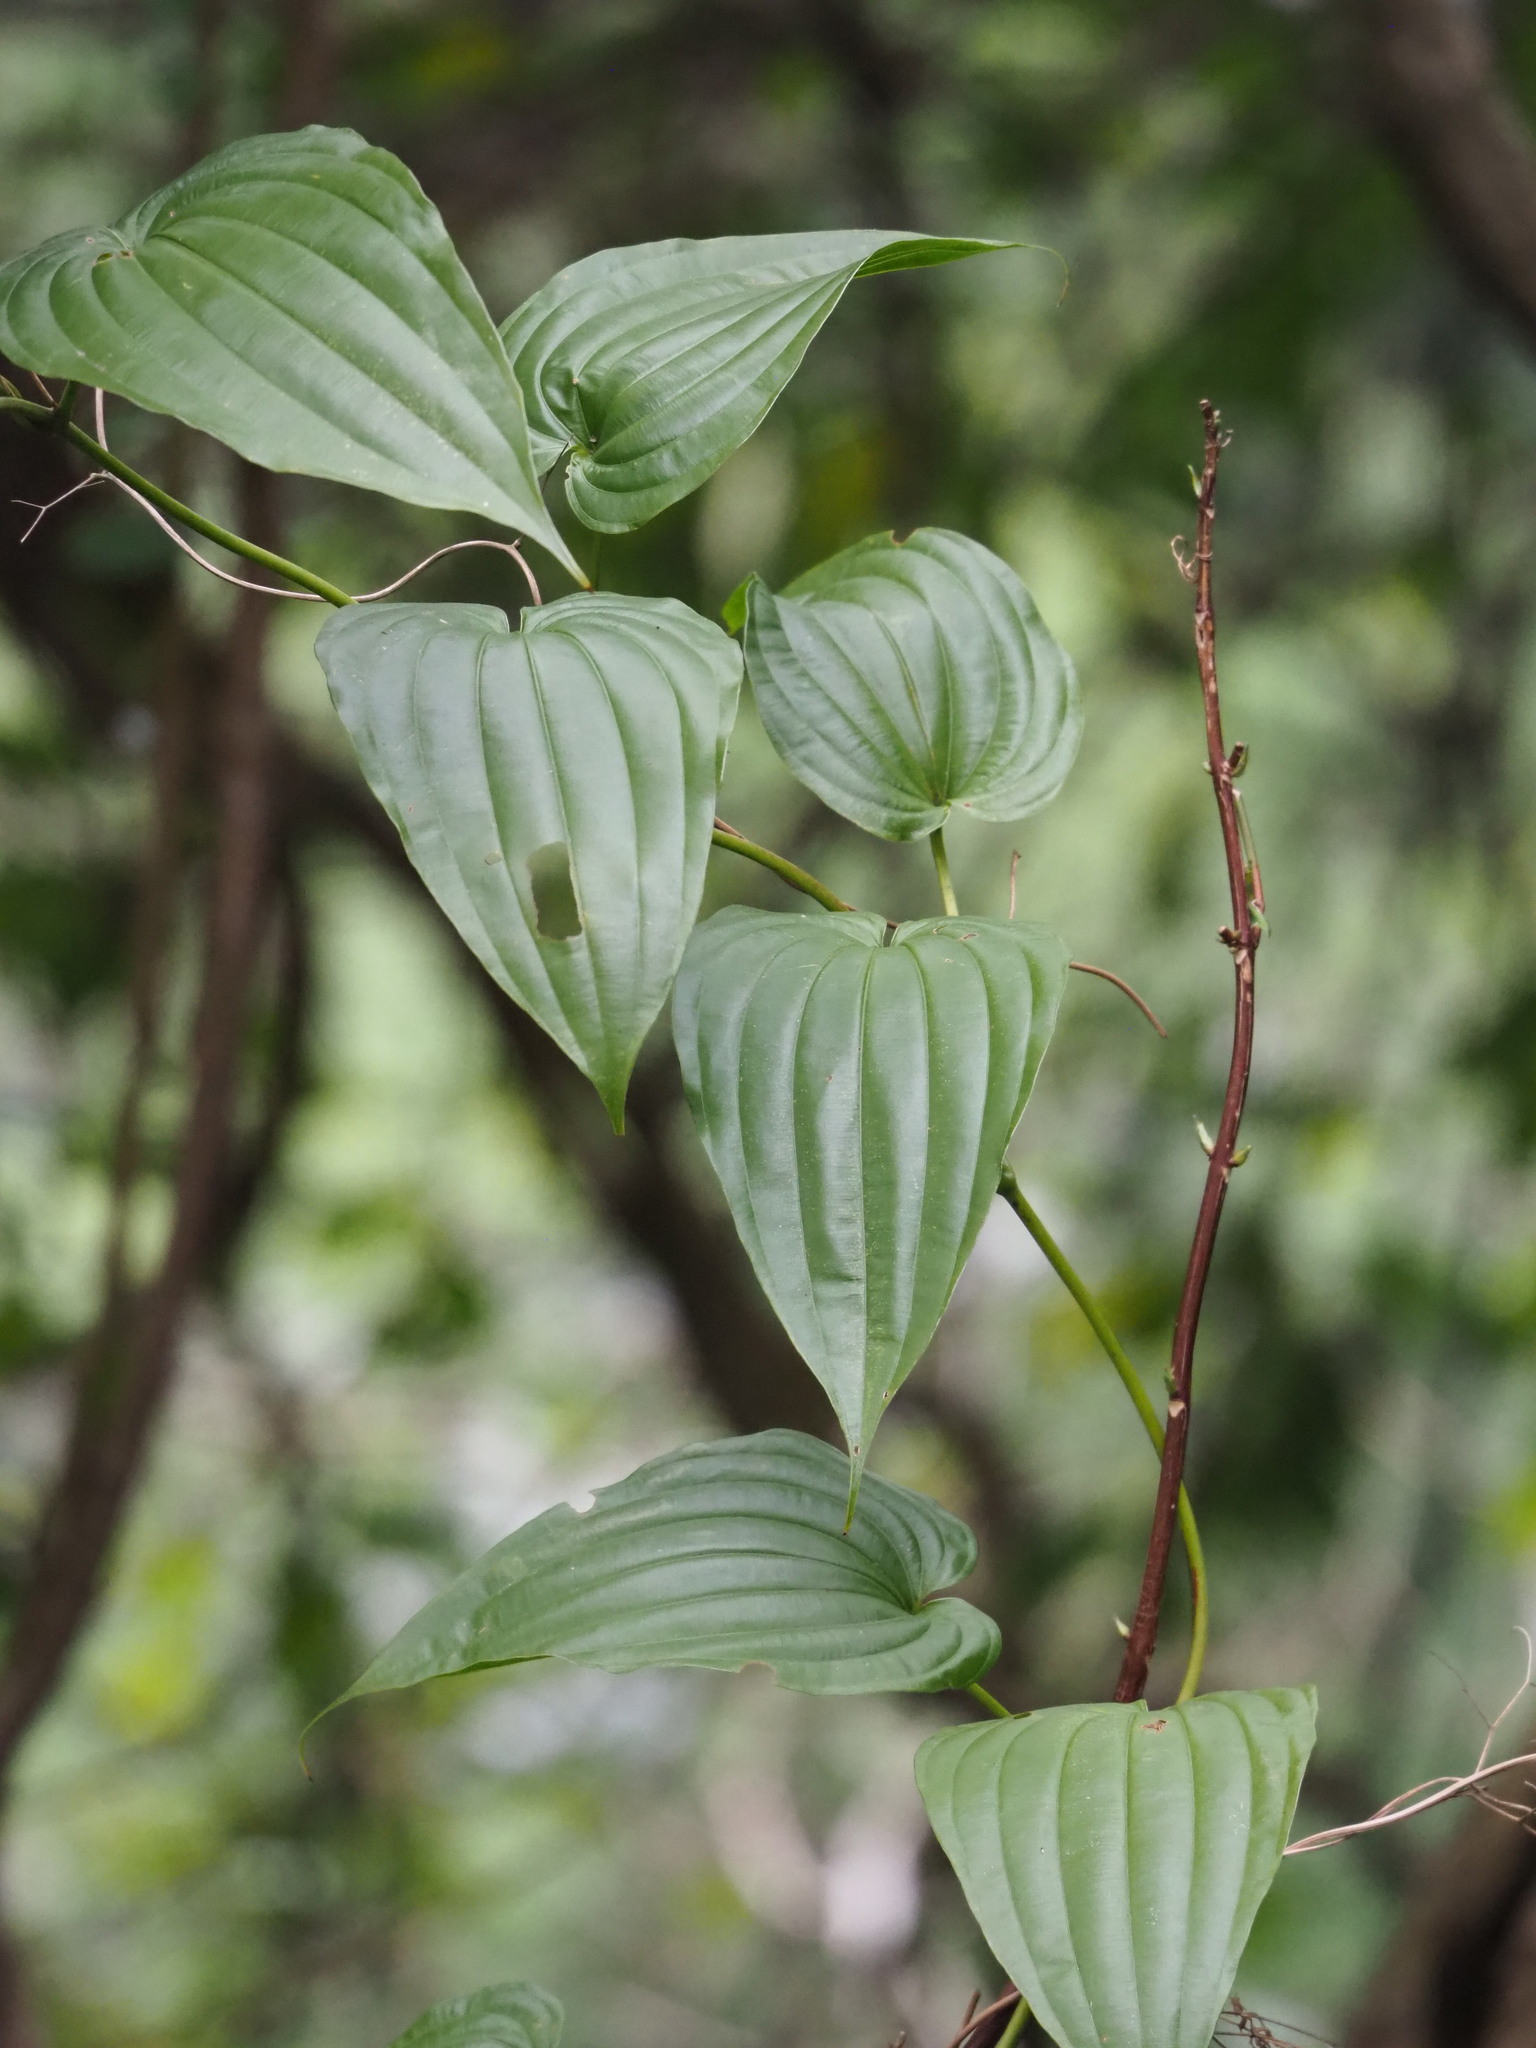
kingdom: Plantae
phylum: Tracheophyta
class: Liliopsida
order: Pandanales
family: Stemonaceae
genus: Stemona
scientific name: Stemona tuberosa
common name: Stemona
